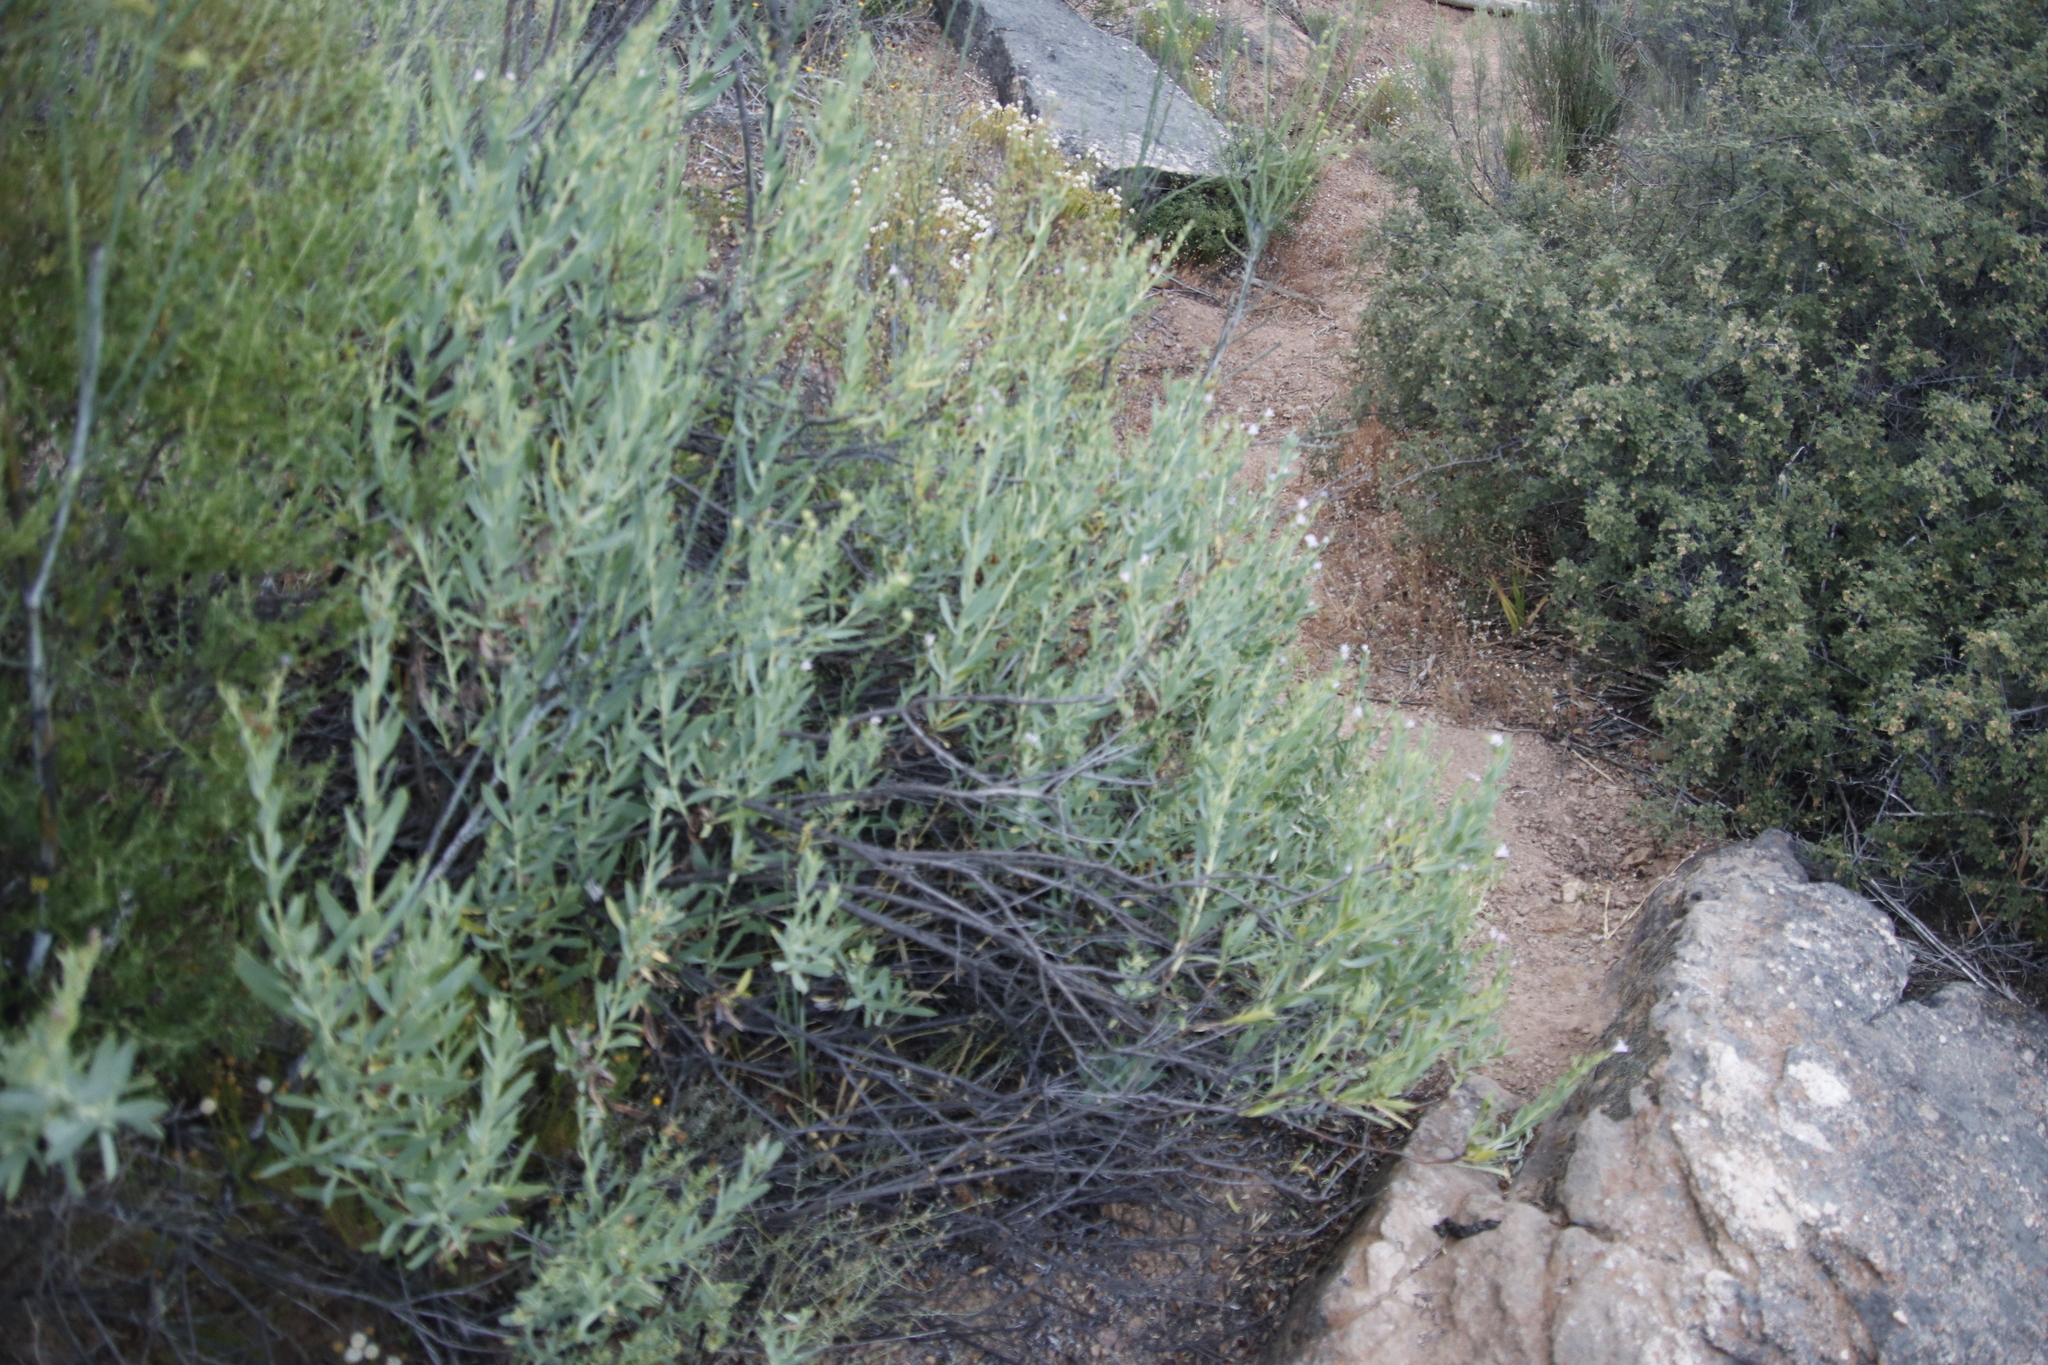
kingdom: Plantae
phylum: Tracheophyta
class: Magnoliopsida
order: Boraginales
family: Boraginaceae
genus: Lobostemon
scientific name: Lobostemon glaucophyllus
